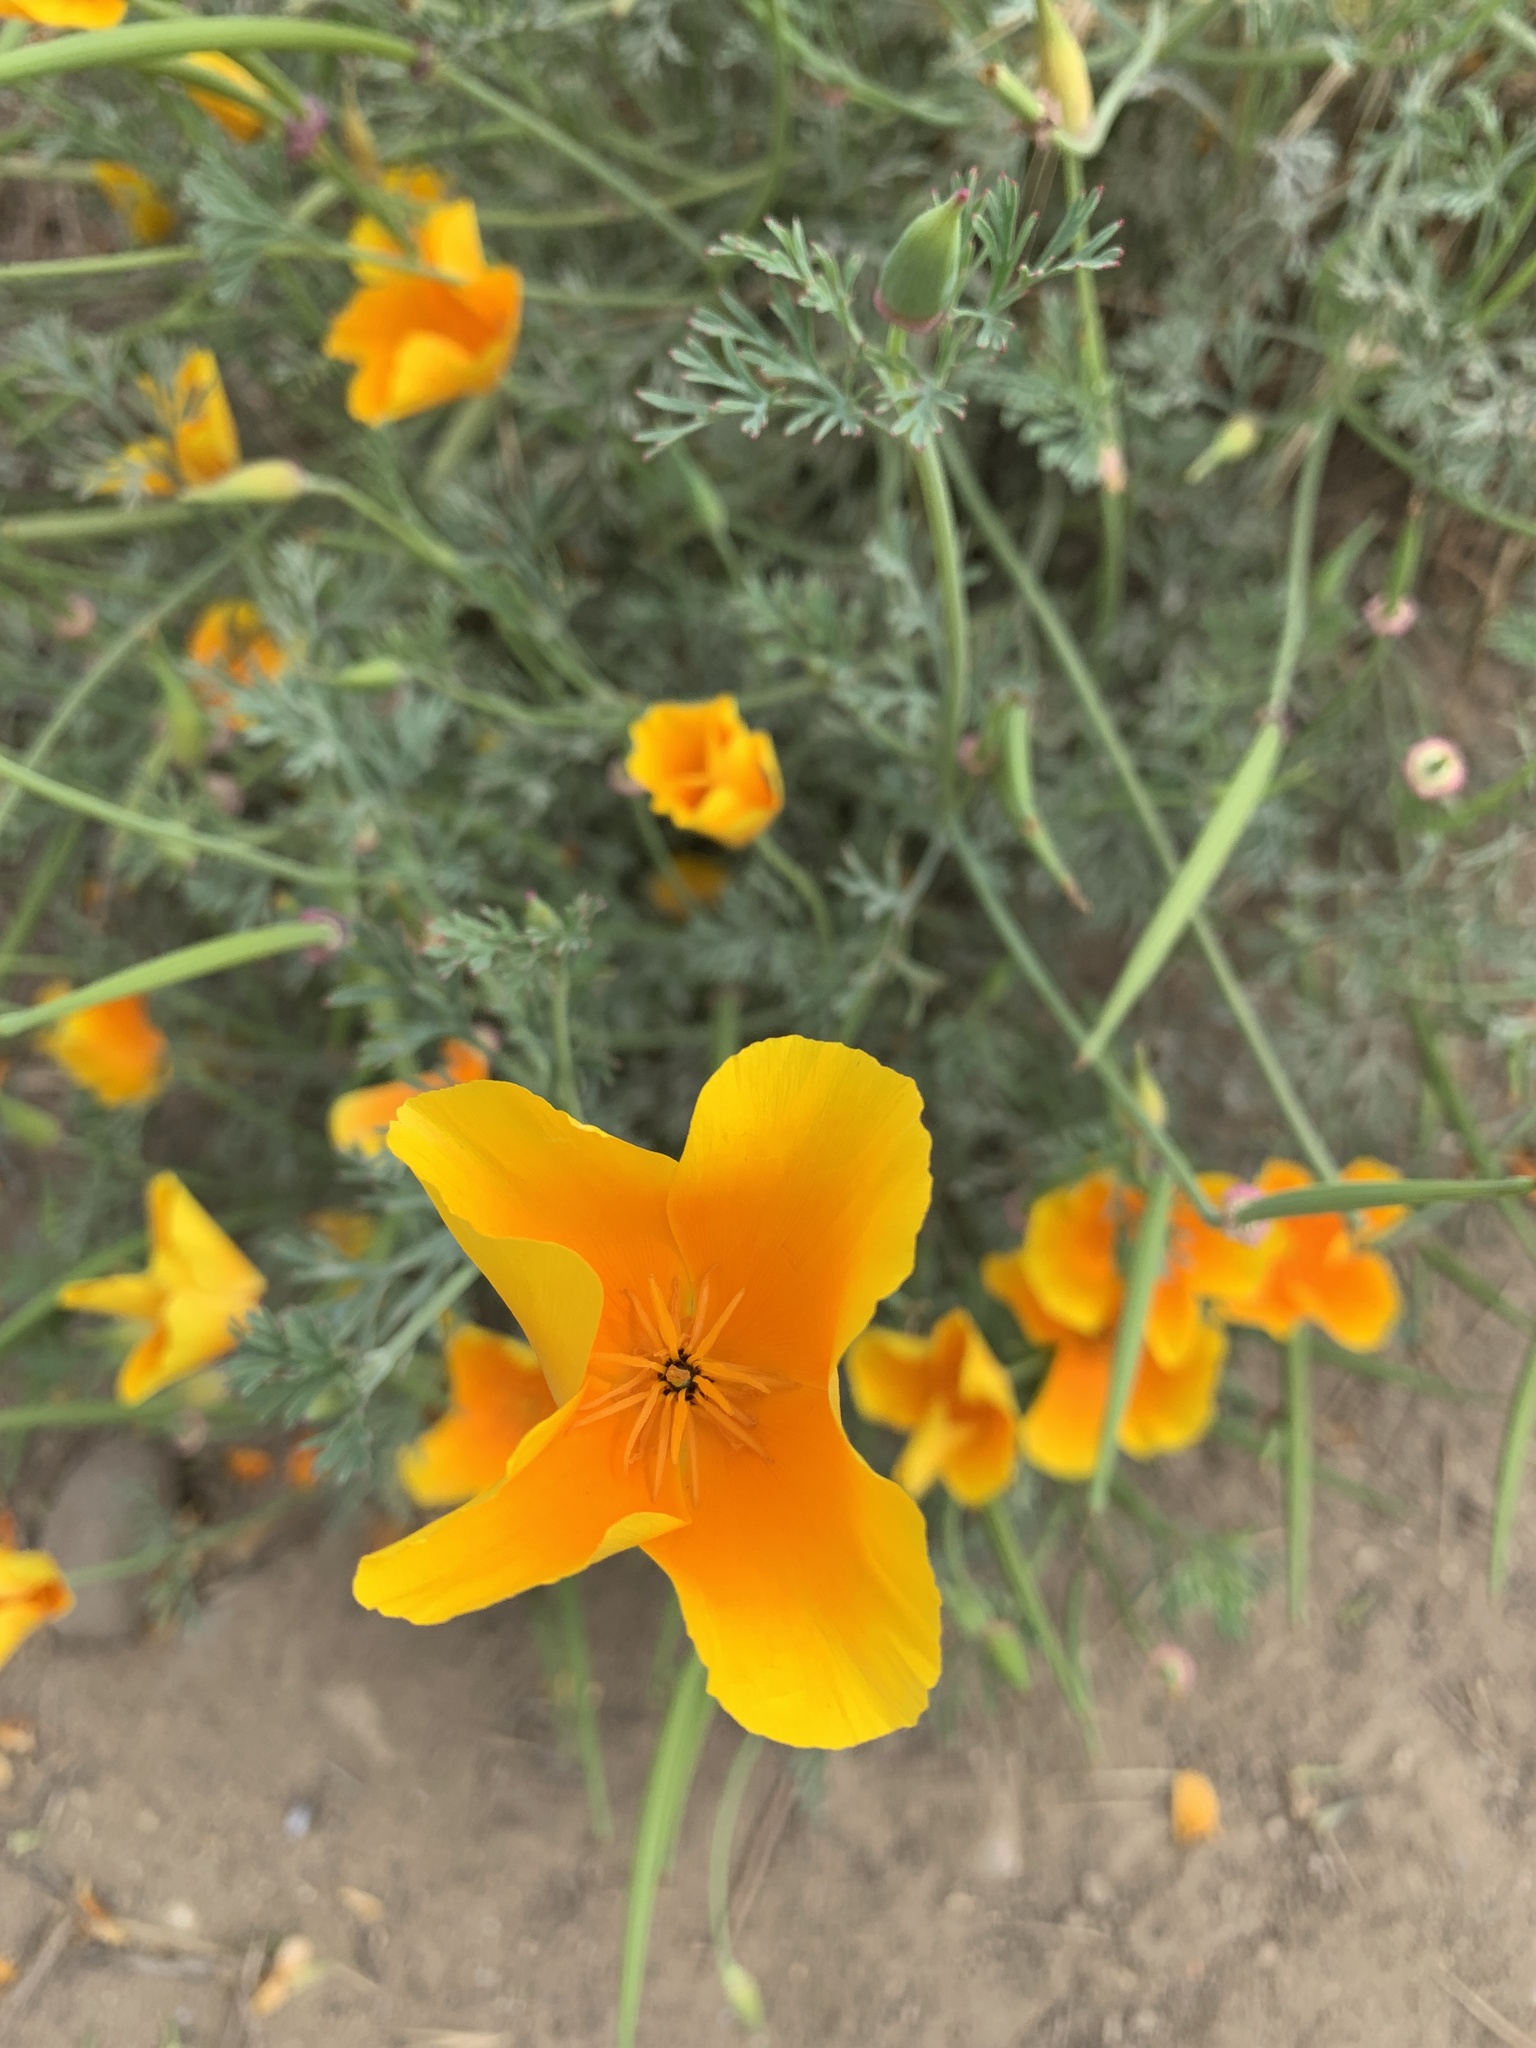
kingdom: Plantae
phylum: Tracheophyta
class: Magnoliopsida
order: Ranunculales
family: Papaveraceae
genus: Eschscholzia
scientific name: Eschscholzia californica
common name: California poppy
